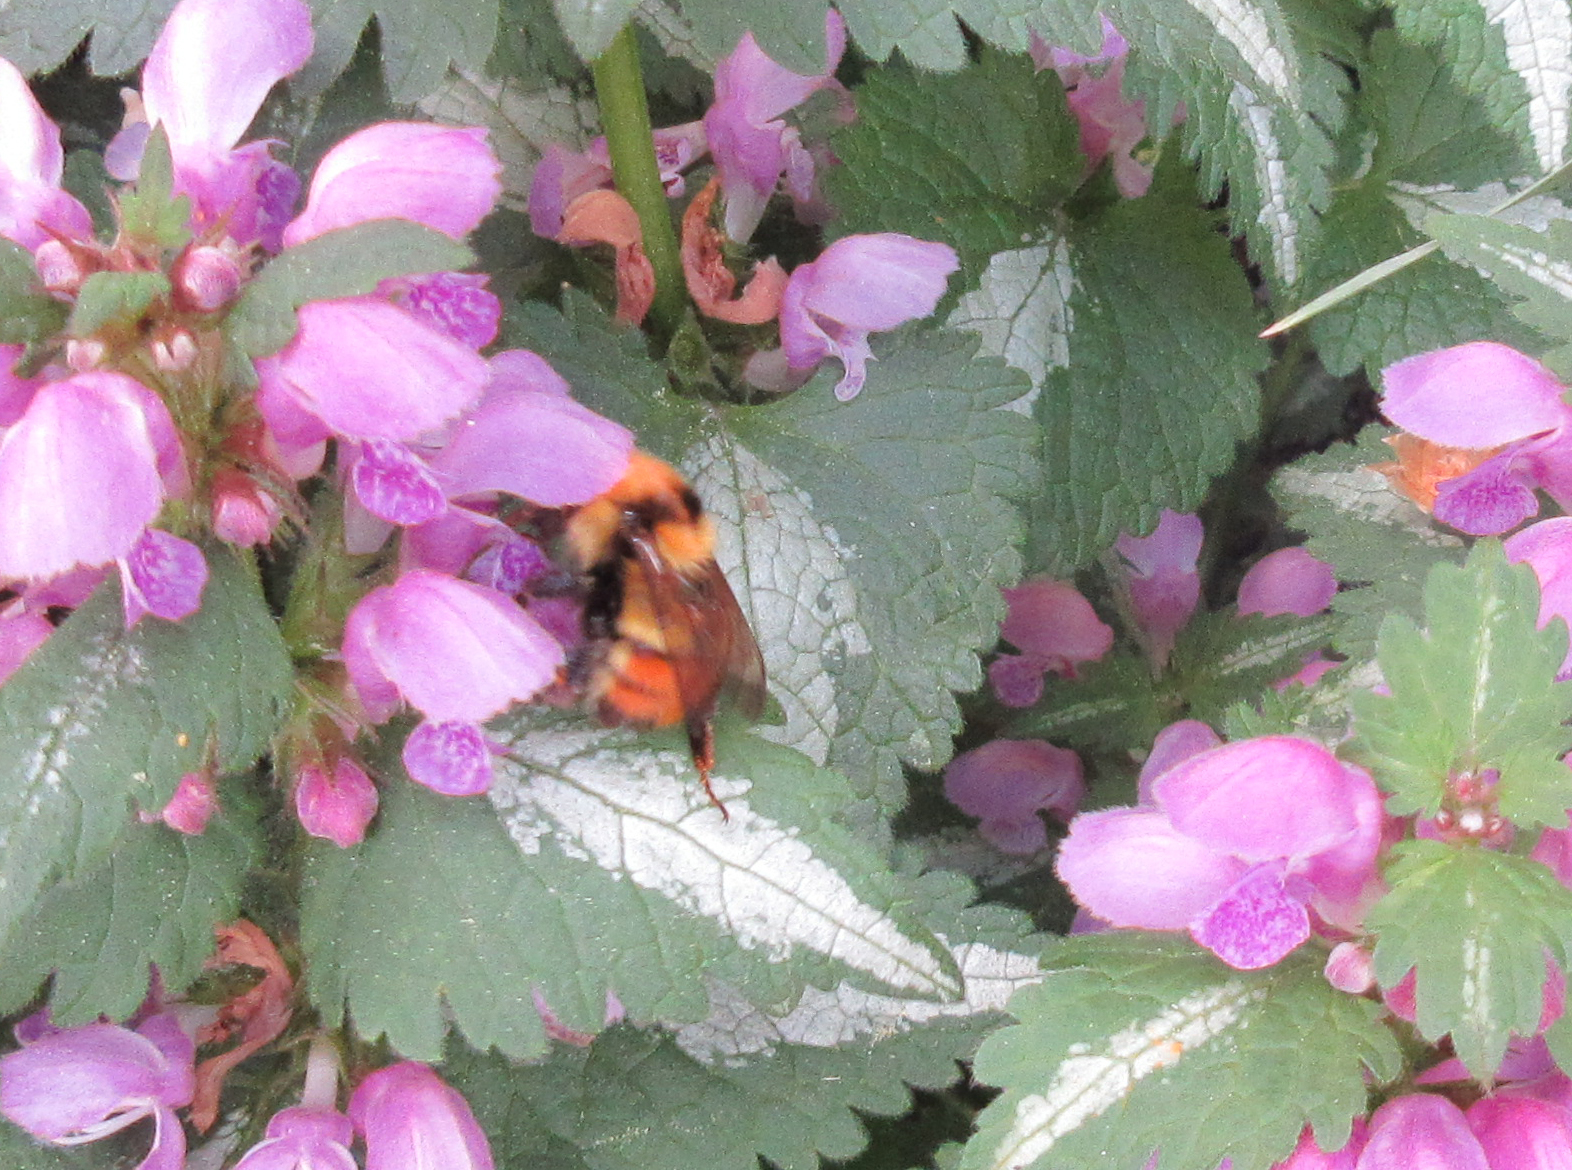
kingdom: Animalia
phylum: Arthropoda
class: Insecta
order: Hymenoptera
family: Apidae
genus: Bombus
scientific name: Bombus centralis
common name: Central bumble bee
